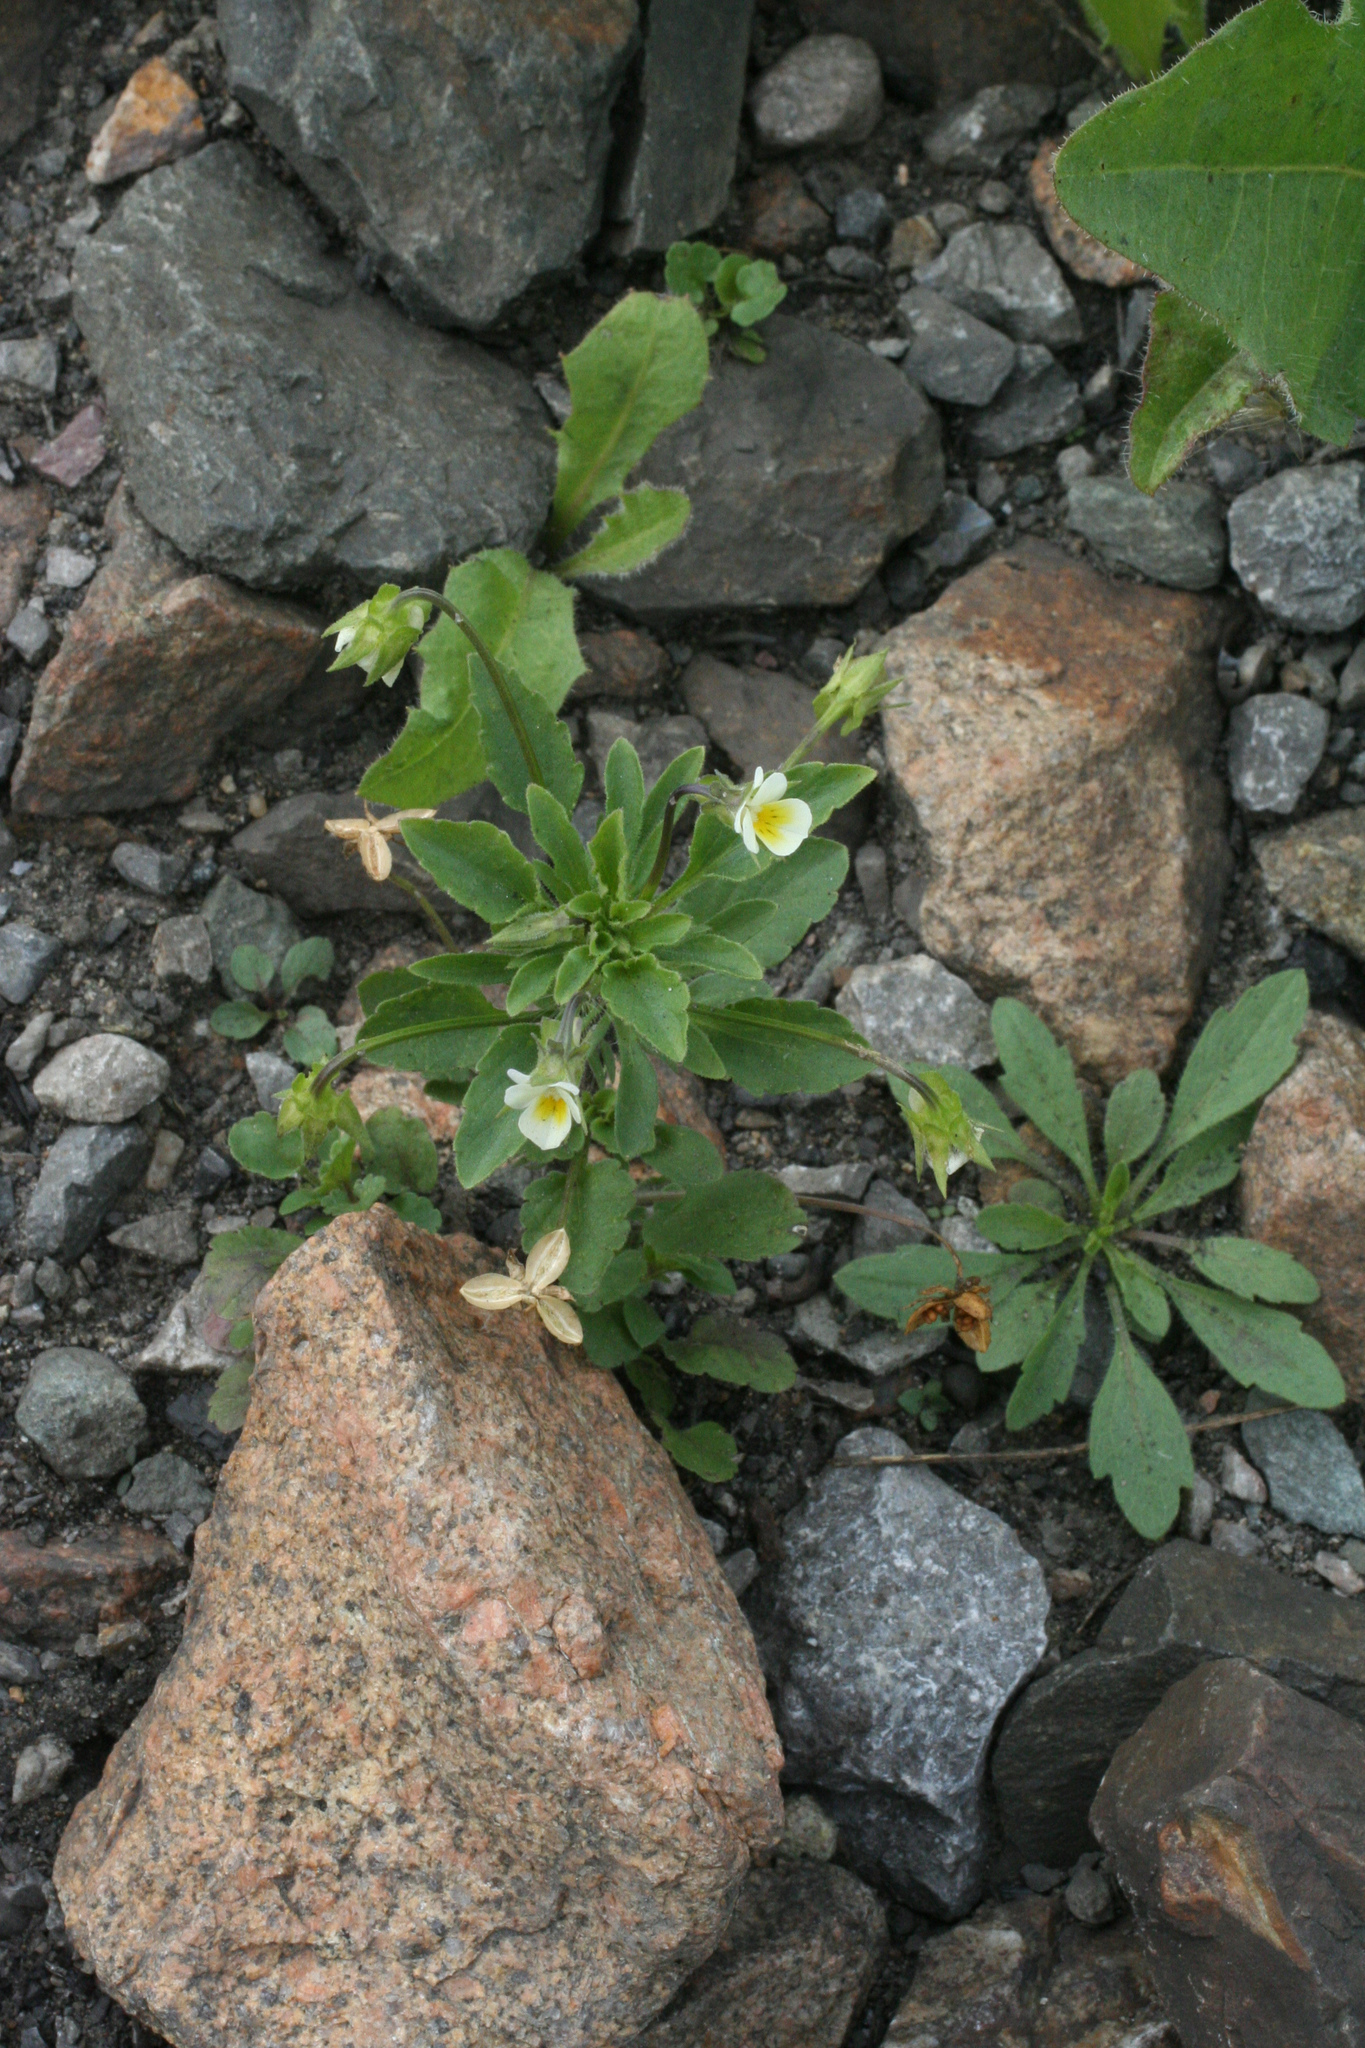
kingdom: Plantae
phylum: Tracheophyta
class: Magnoliopsida
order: Malpighiales
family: Violaceae
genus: Viola
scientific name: Viola arvensis
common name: Field pansy
